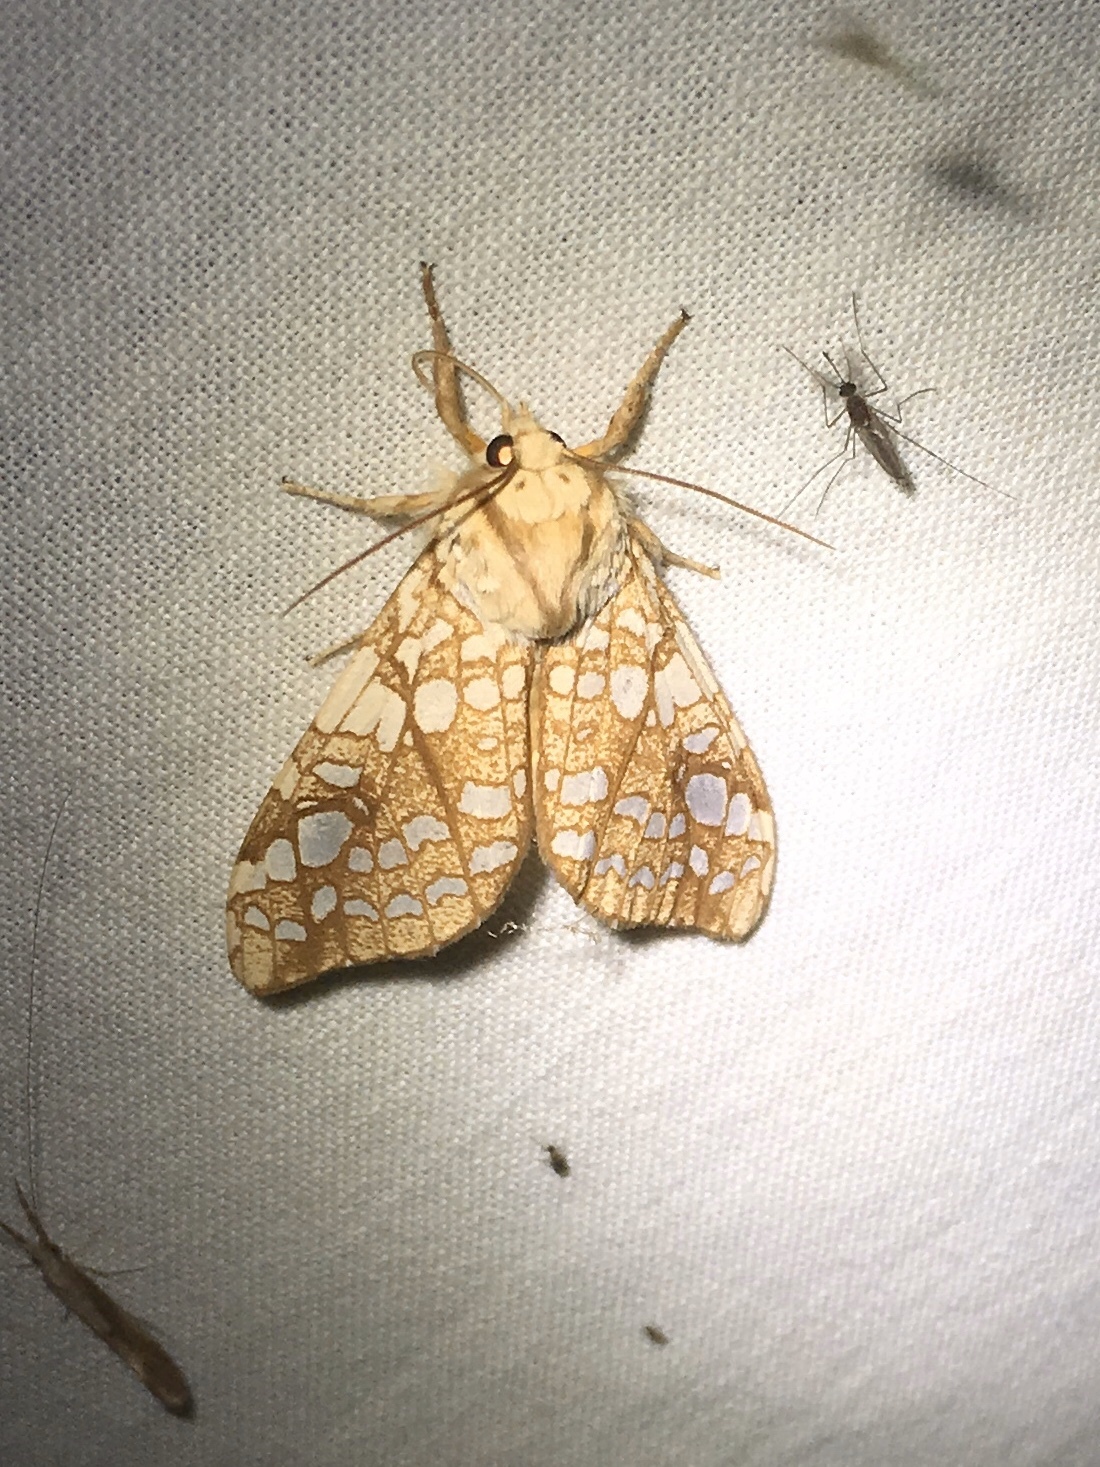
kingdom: Animalia
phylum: Arthropoda
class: Insecta
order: Lepidoptera
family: Erebidae
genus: Lophocampa
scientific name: Lophocampa caryae
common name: Hickory tussock moth
